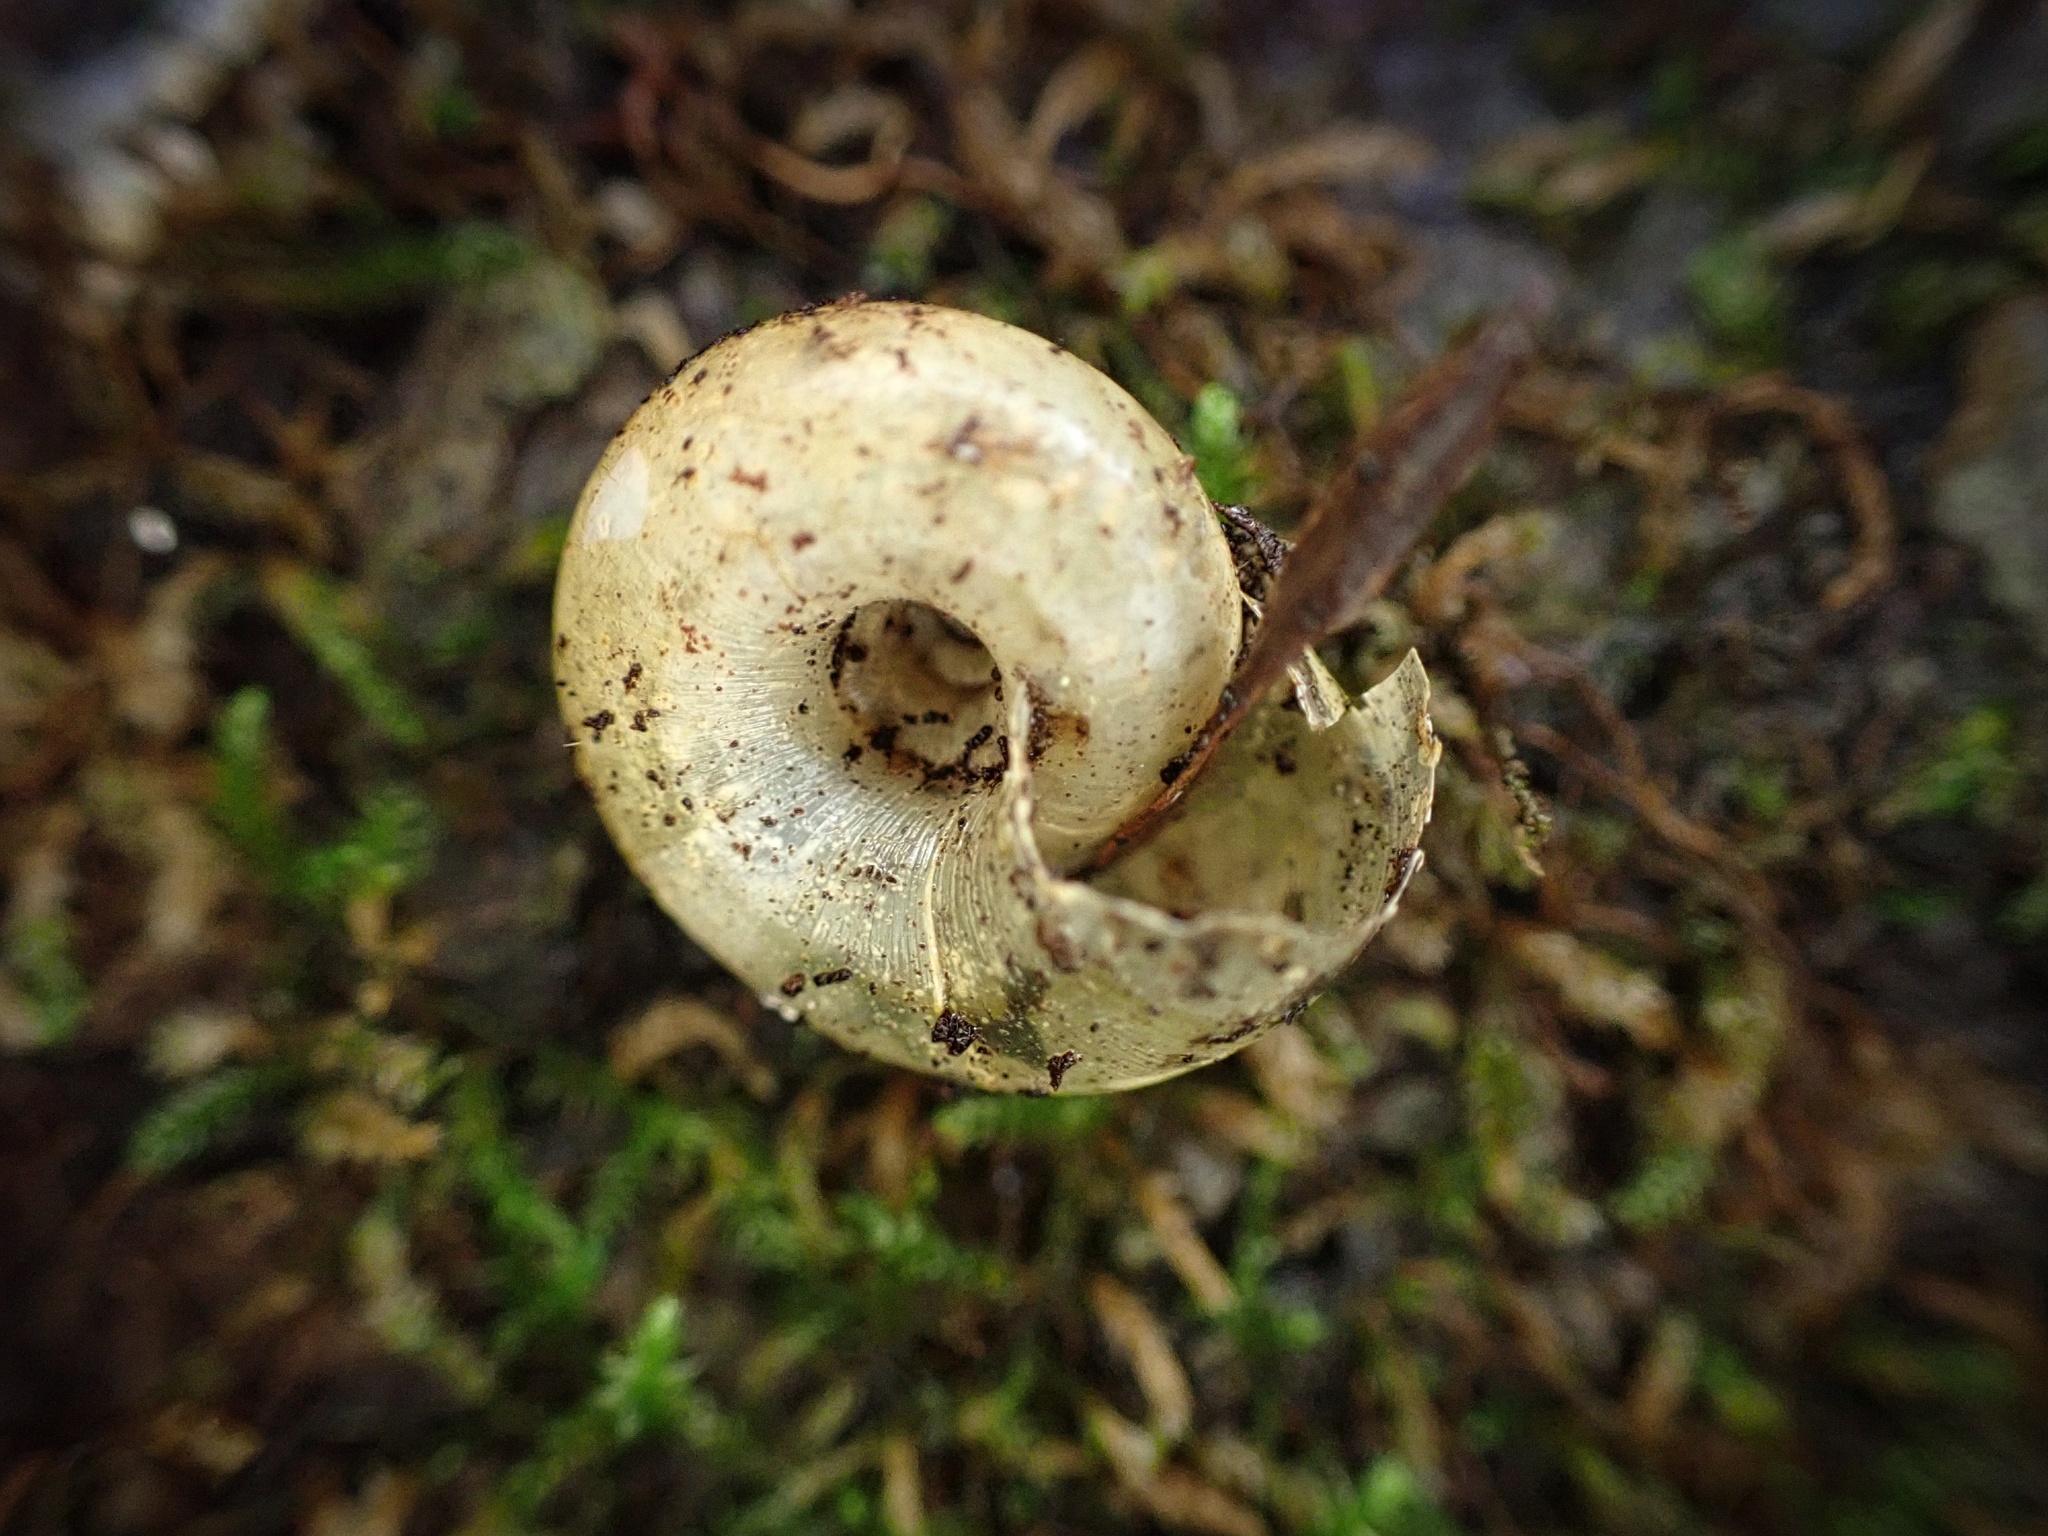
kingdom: Animalia
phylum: Mollusca
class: Gastropoda
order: Stylommatophora
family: Haplotrematidae
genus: Haplotrema
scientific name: Haplotrema minimum
